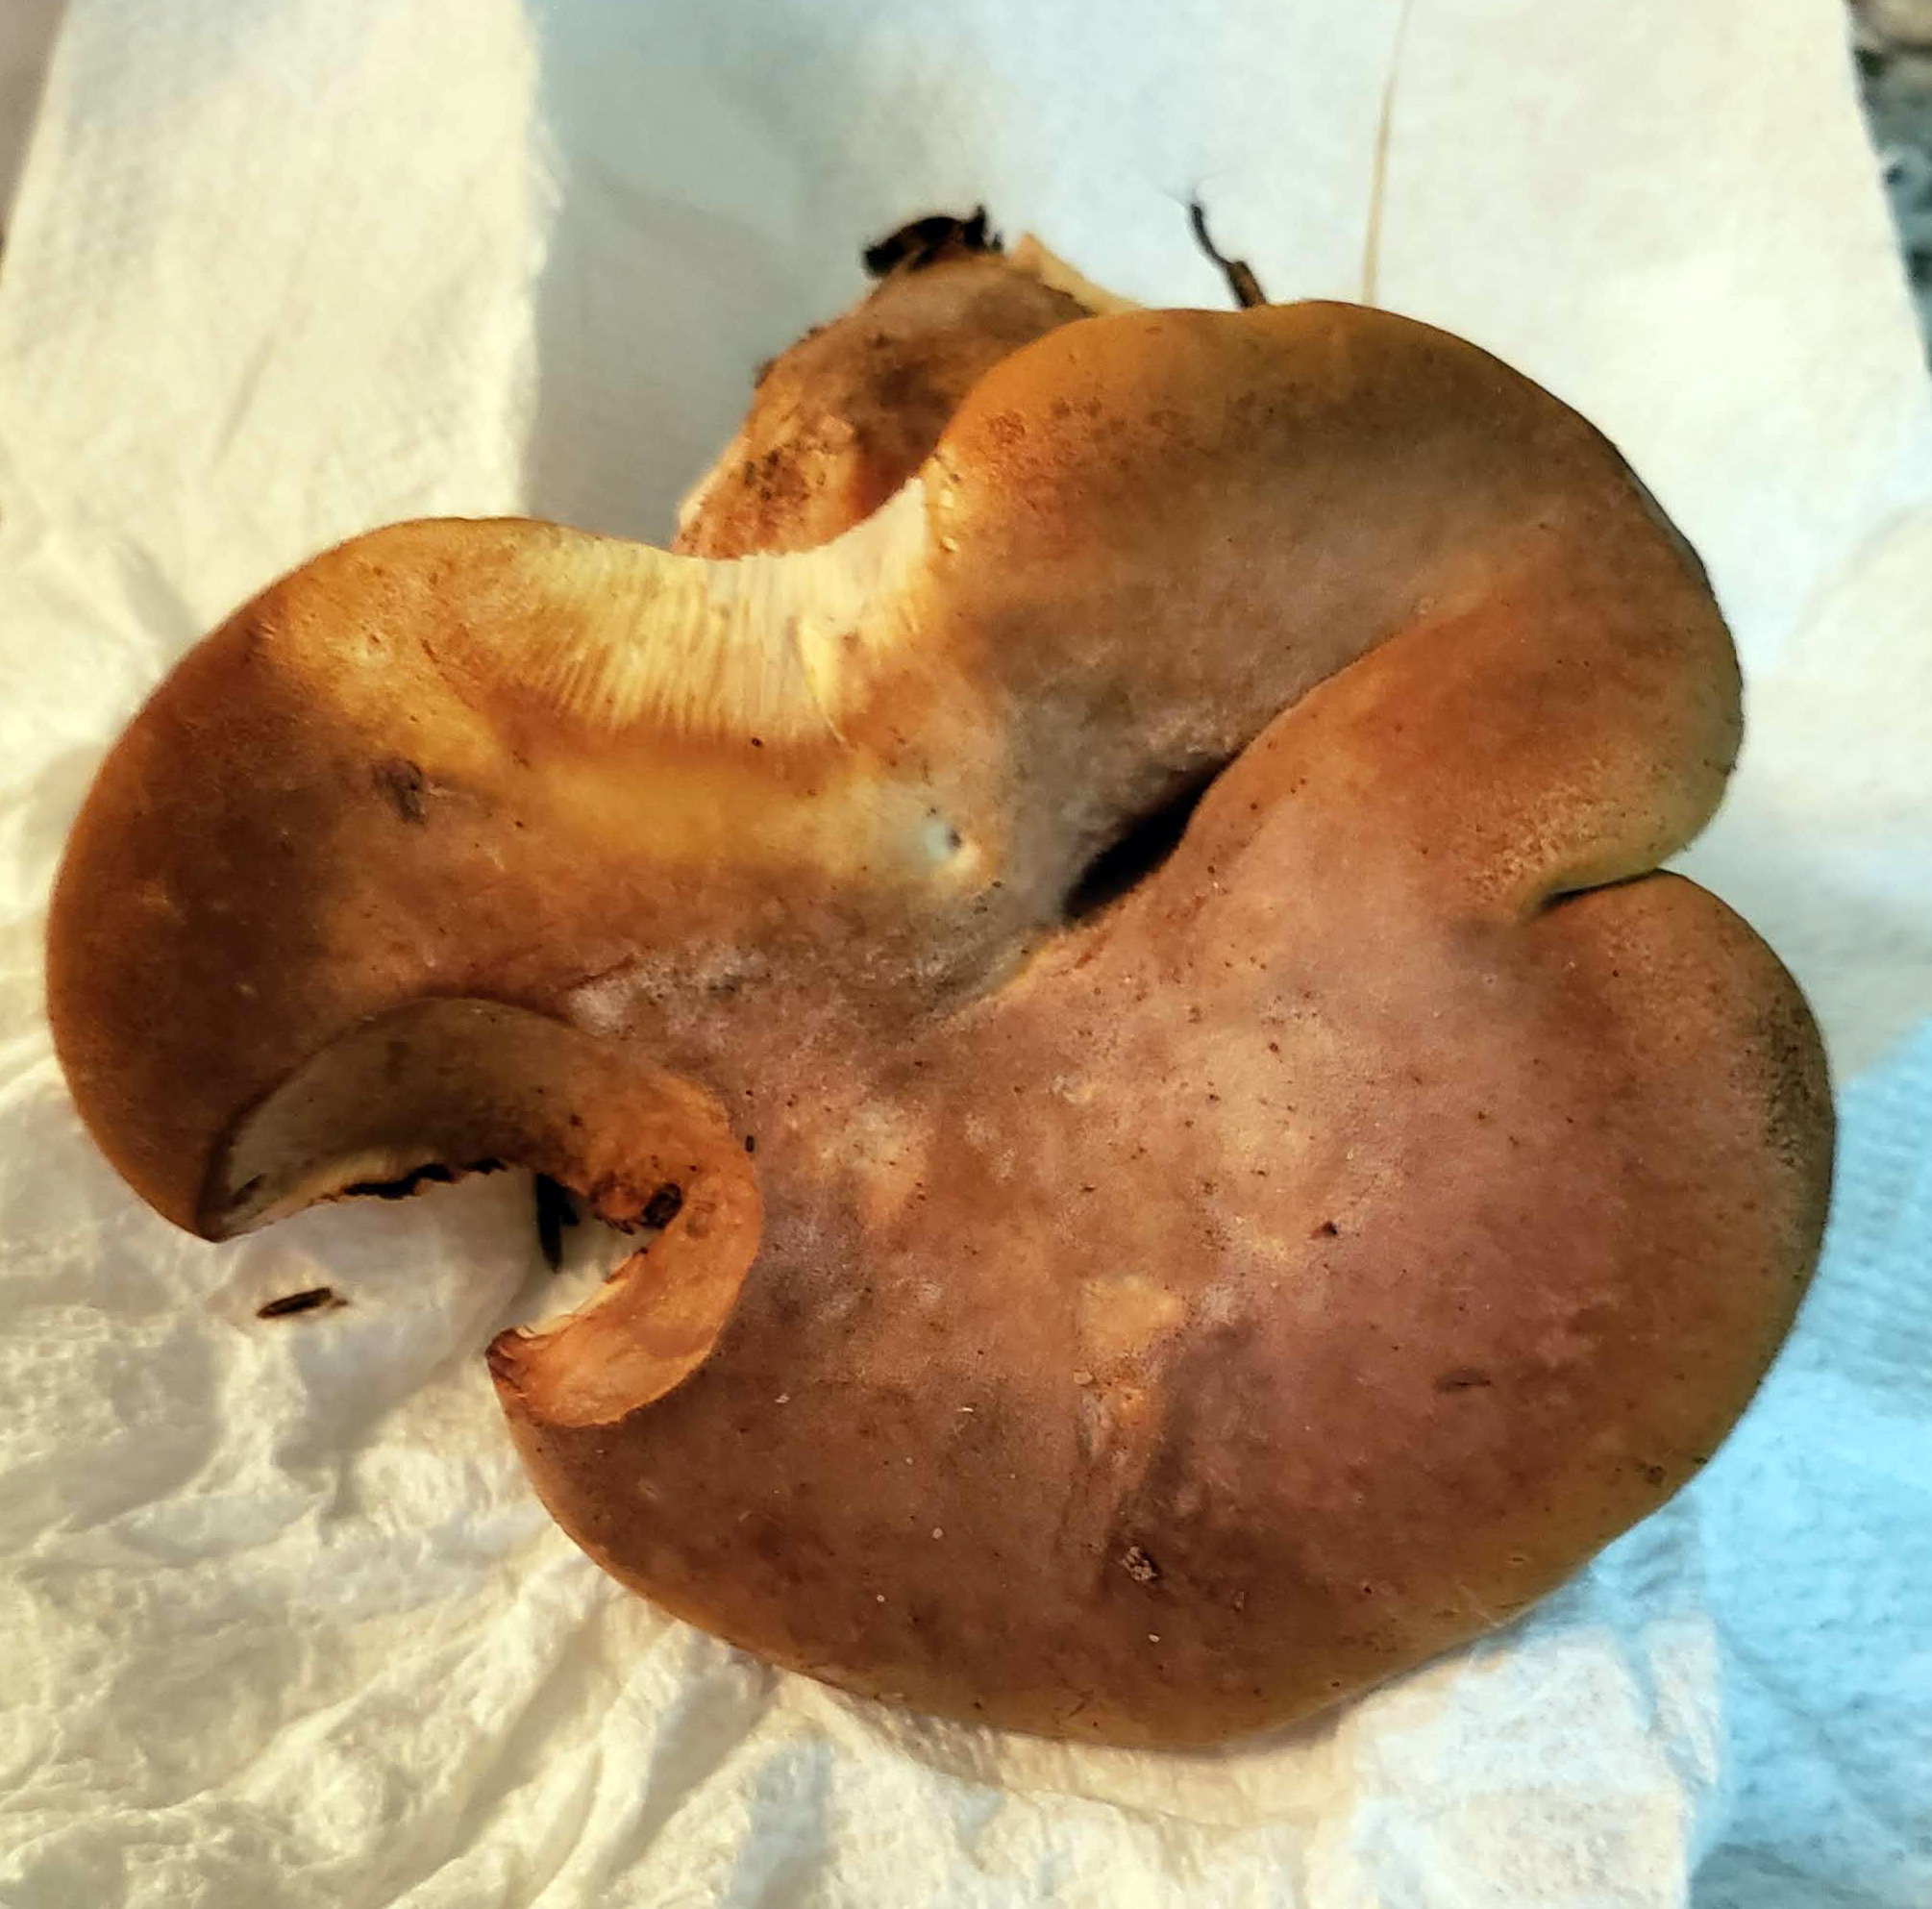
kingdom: Fungi
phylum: Basidiomycota
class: Agaricomycetes
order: Boletales
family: Tapinellaceae
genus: Tapinella
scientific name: Tapinella atrotomentosa
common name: Velvet rollrim
